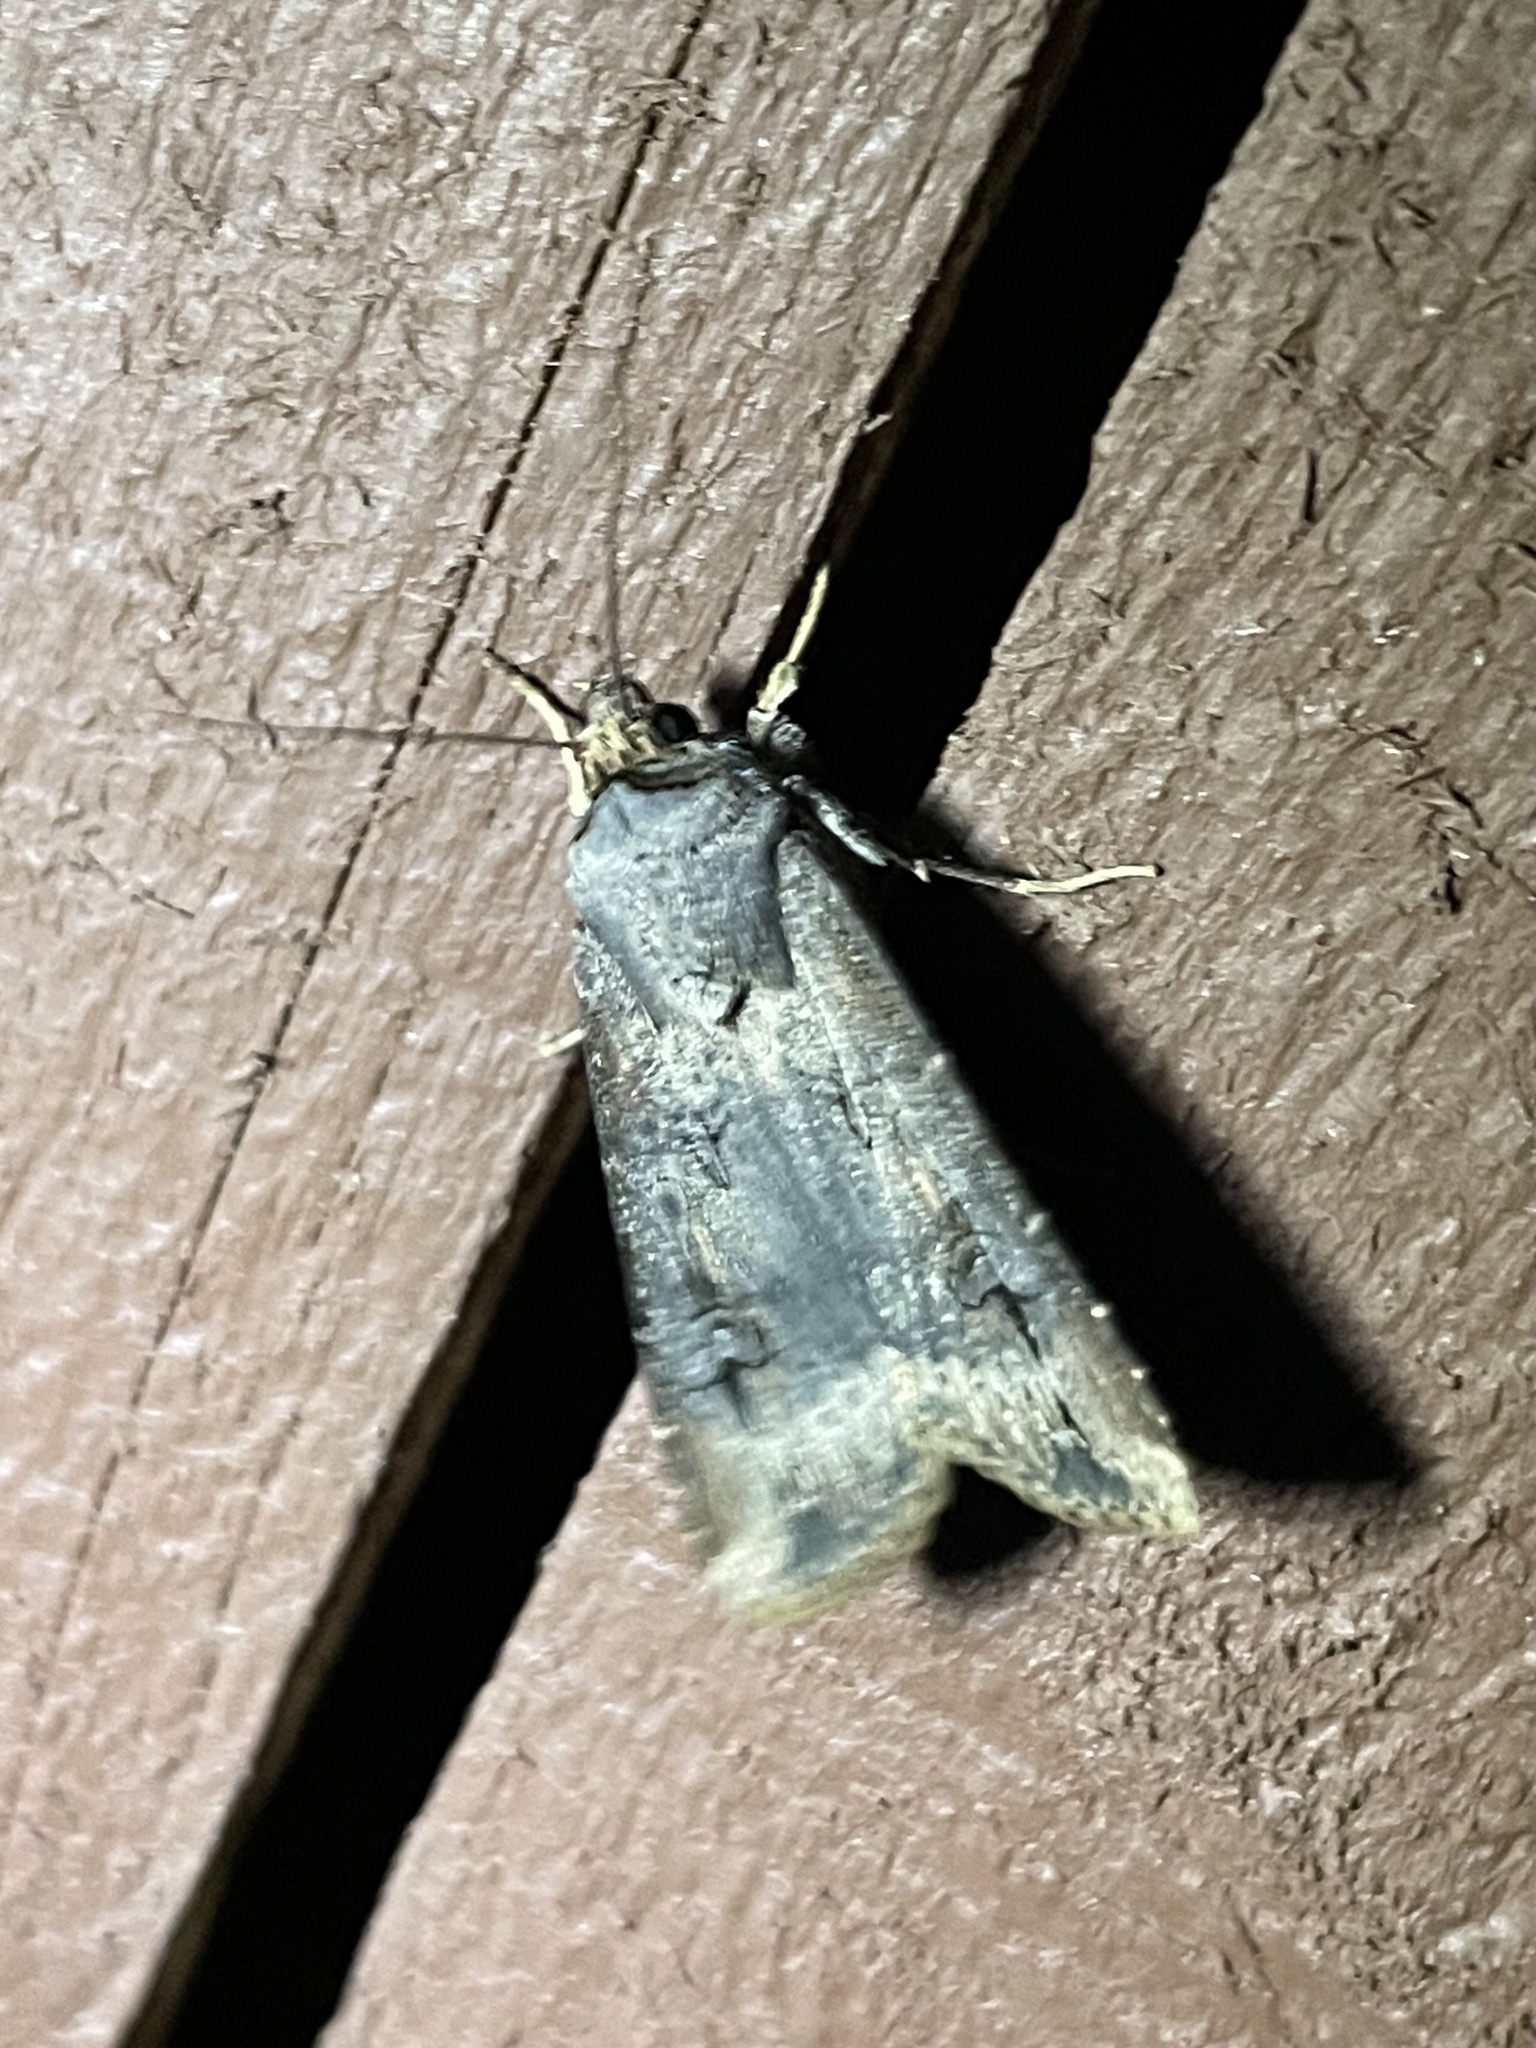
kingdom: Animalia
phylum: Arthropoda
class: Insecta
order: Lepidoptera
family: Noctuidae
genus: Agrotis
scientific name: Agrotis ipsilon
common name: Dark sword-grass
